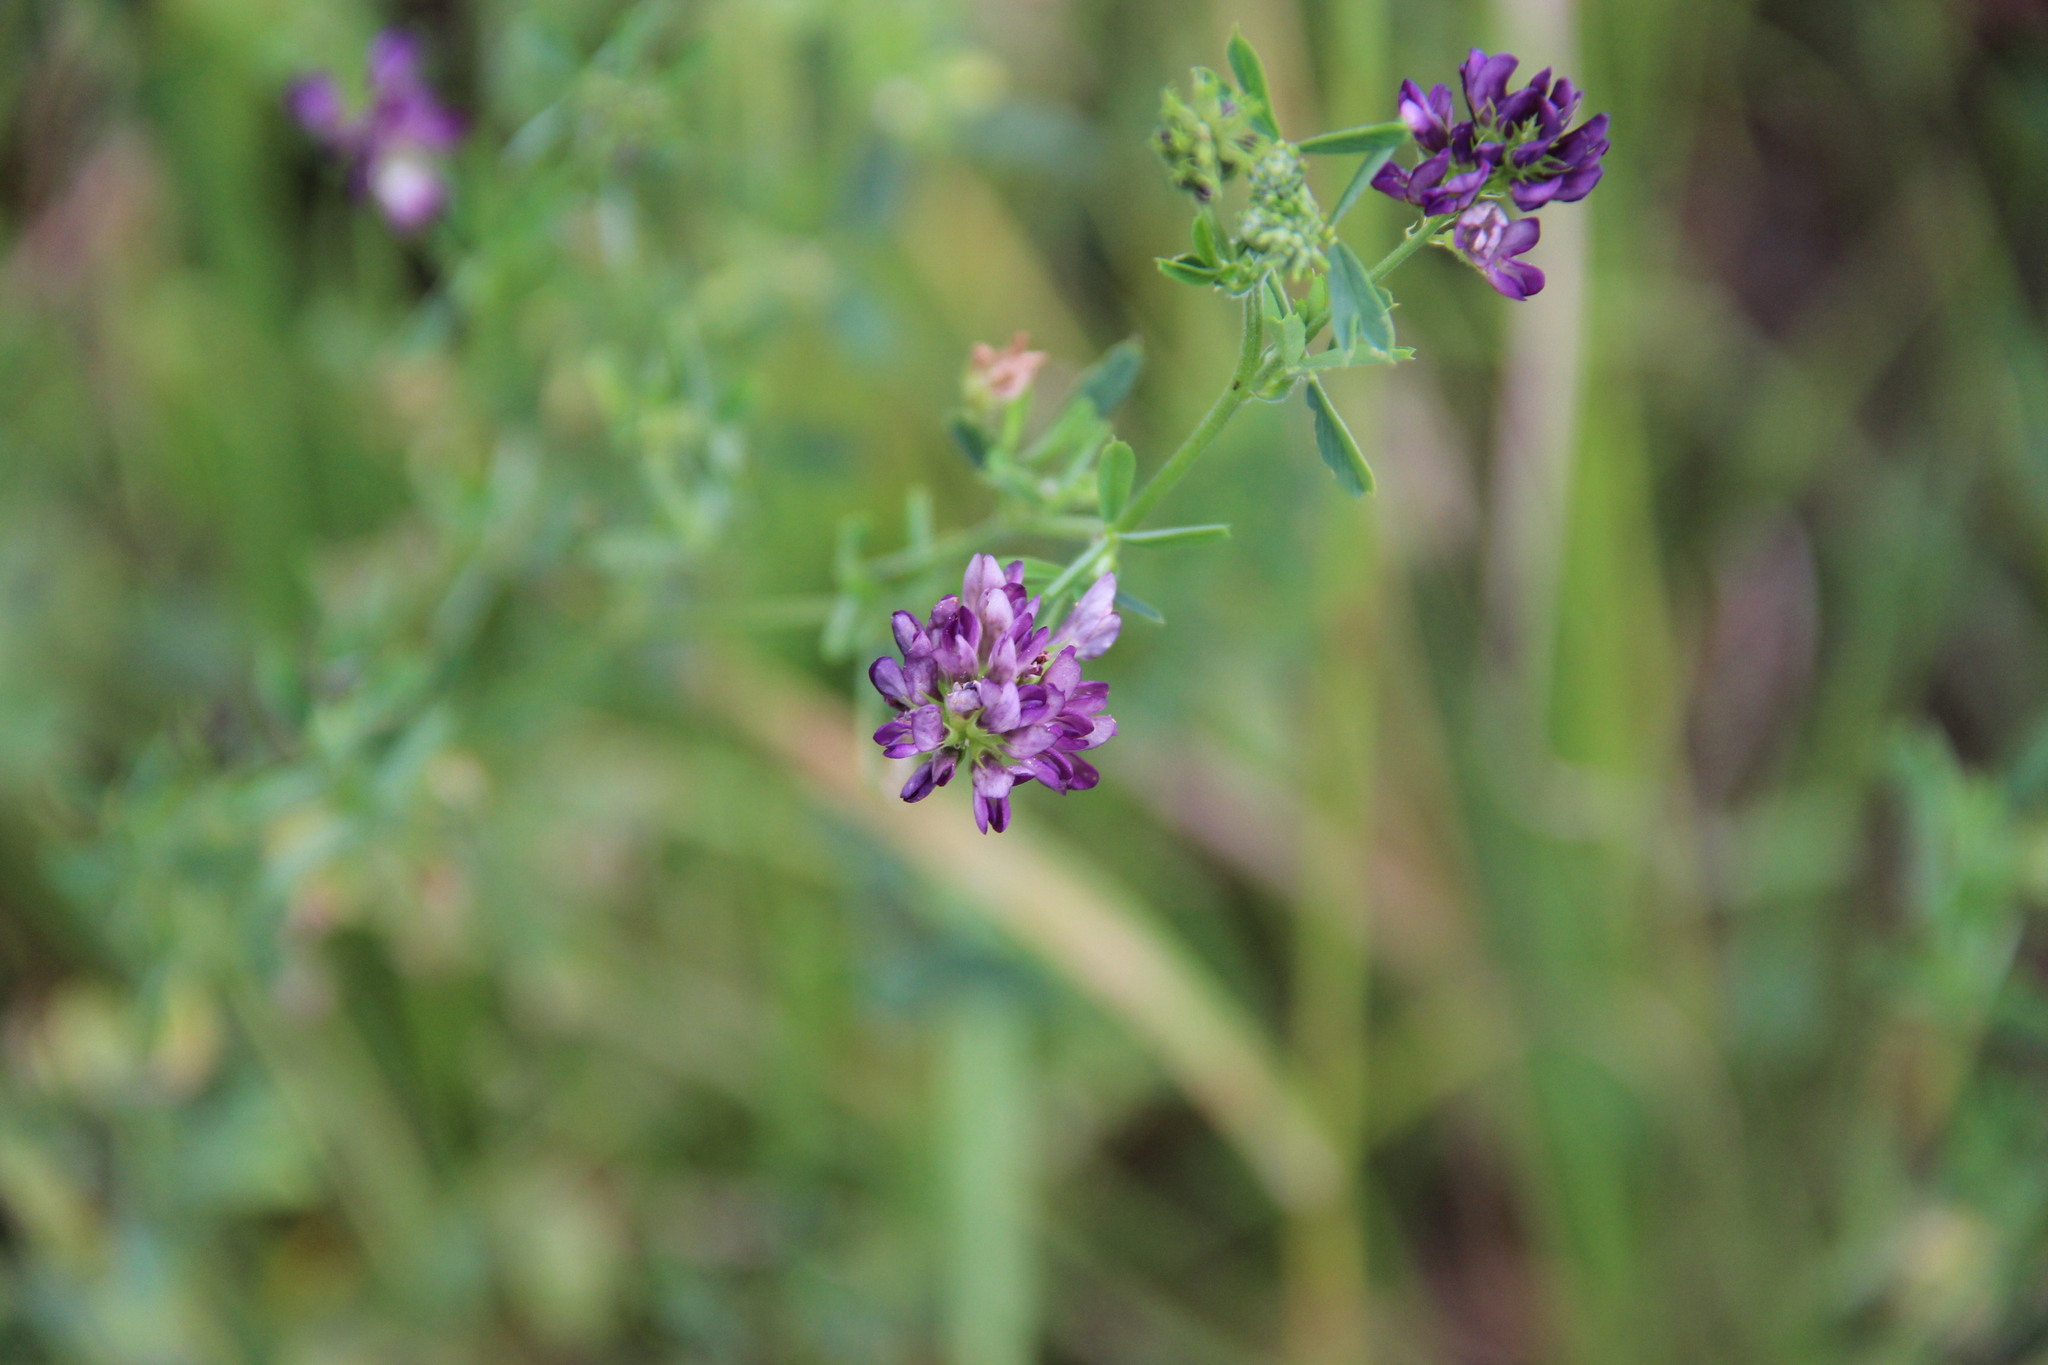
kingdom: Plantae
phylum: Tracheophyta
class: Magnoliopsida
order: Fabales
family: Fabaceae
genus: Medicago
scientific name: Medicago sativa
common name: Alfalfa
